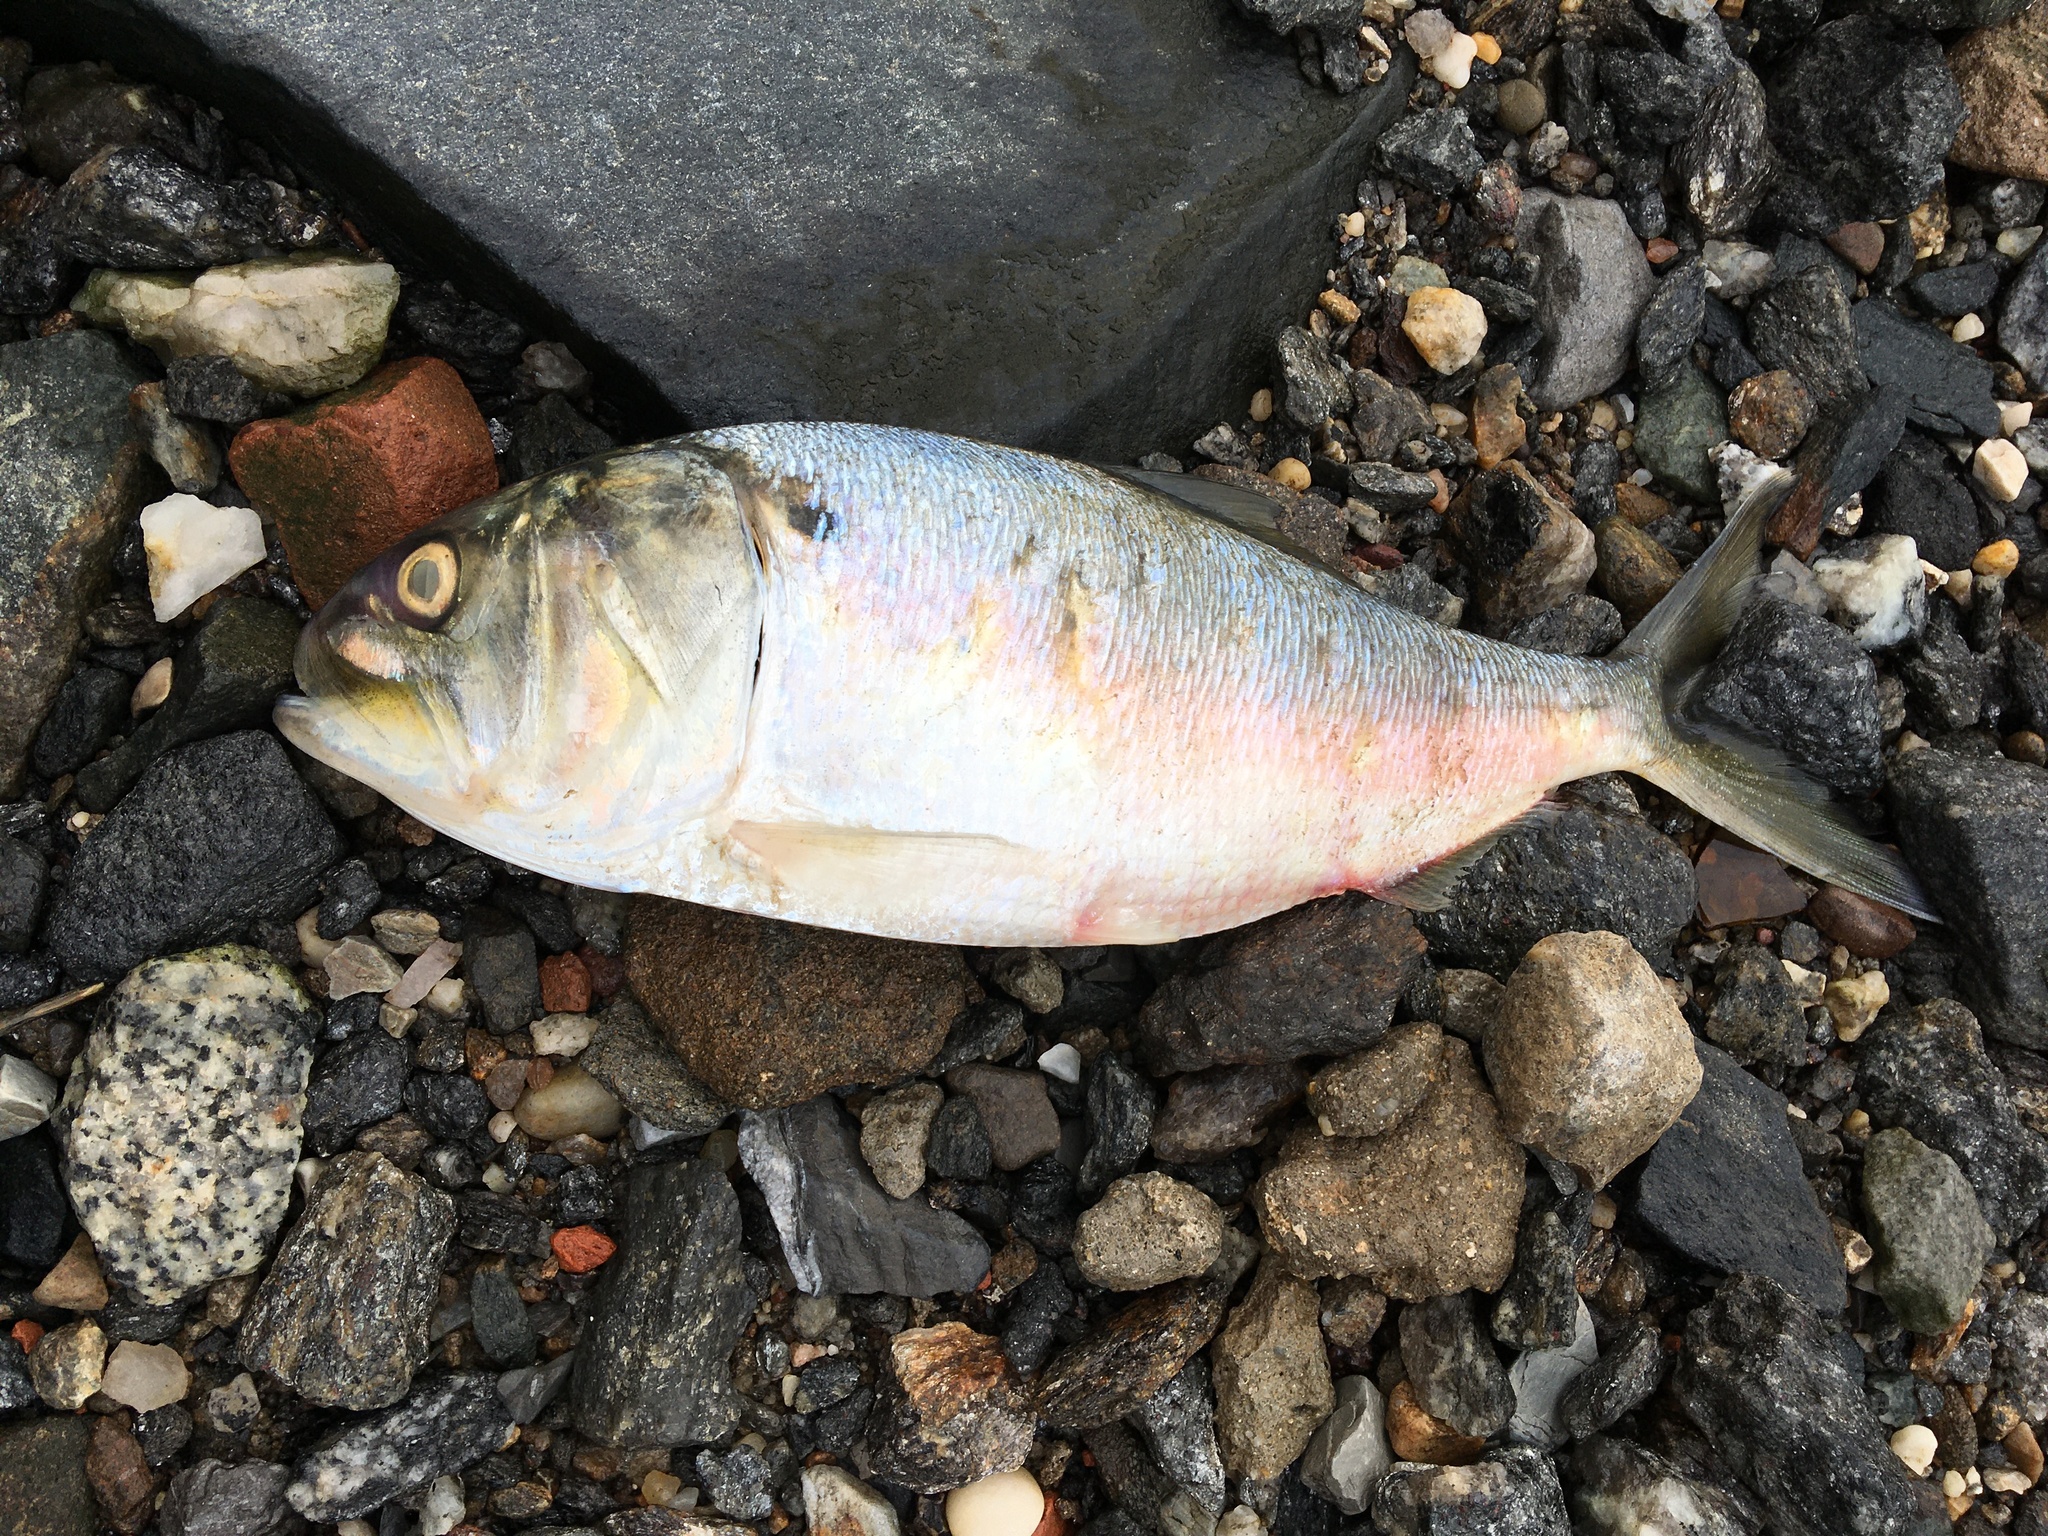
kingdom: Animalia
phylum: Chordata
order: Clupeiformes
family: Clupeidae
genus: Brevoortia
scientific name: Brevoortia tyrannus
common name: Atlantic menhaden
